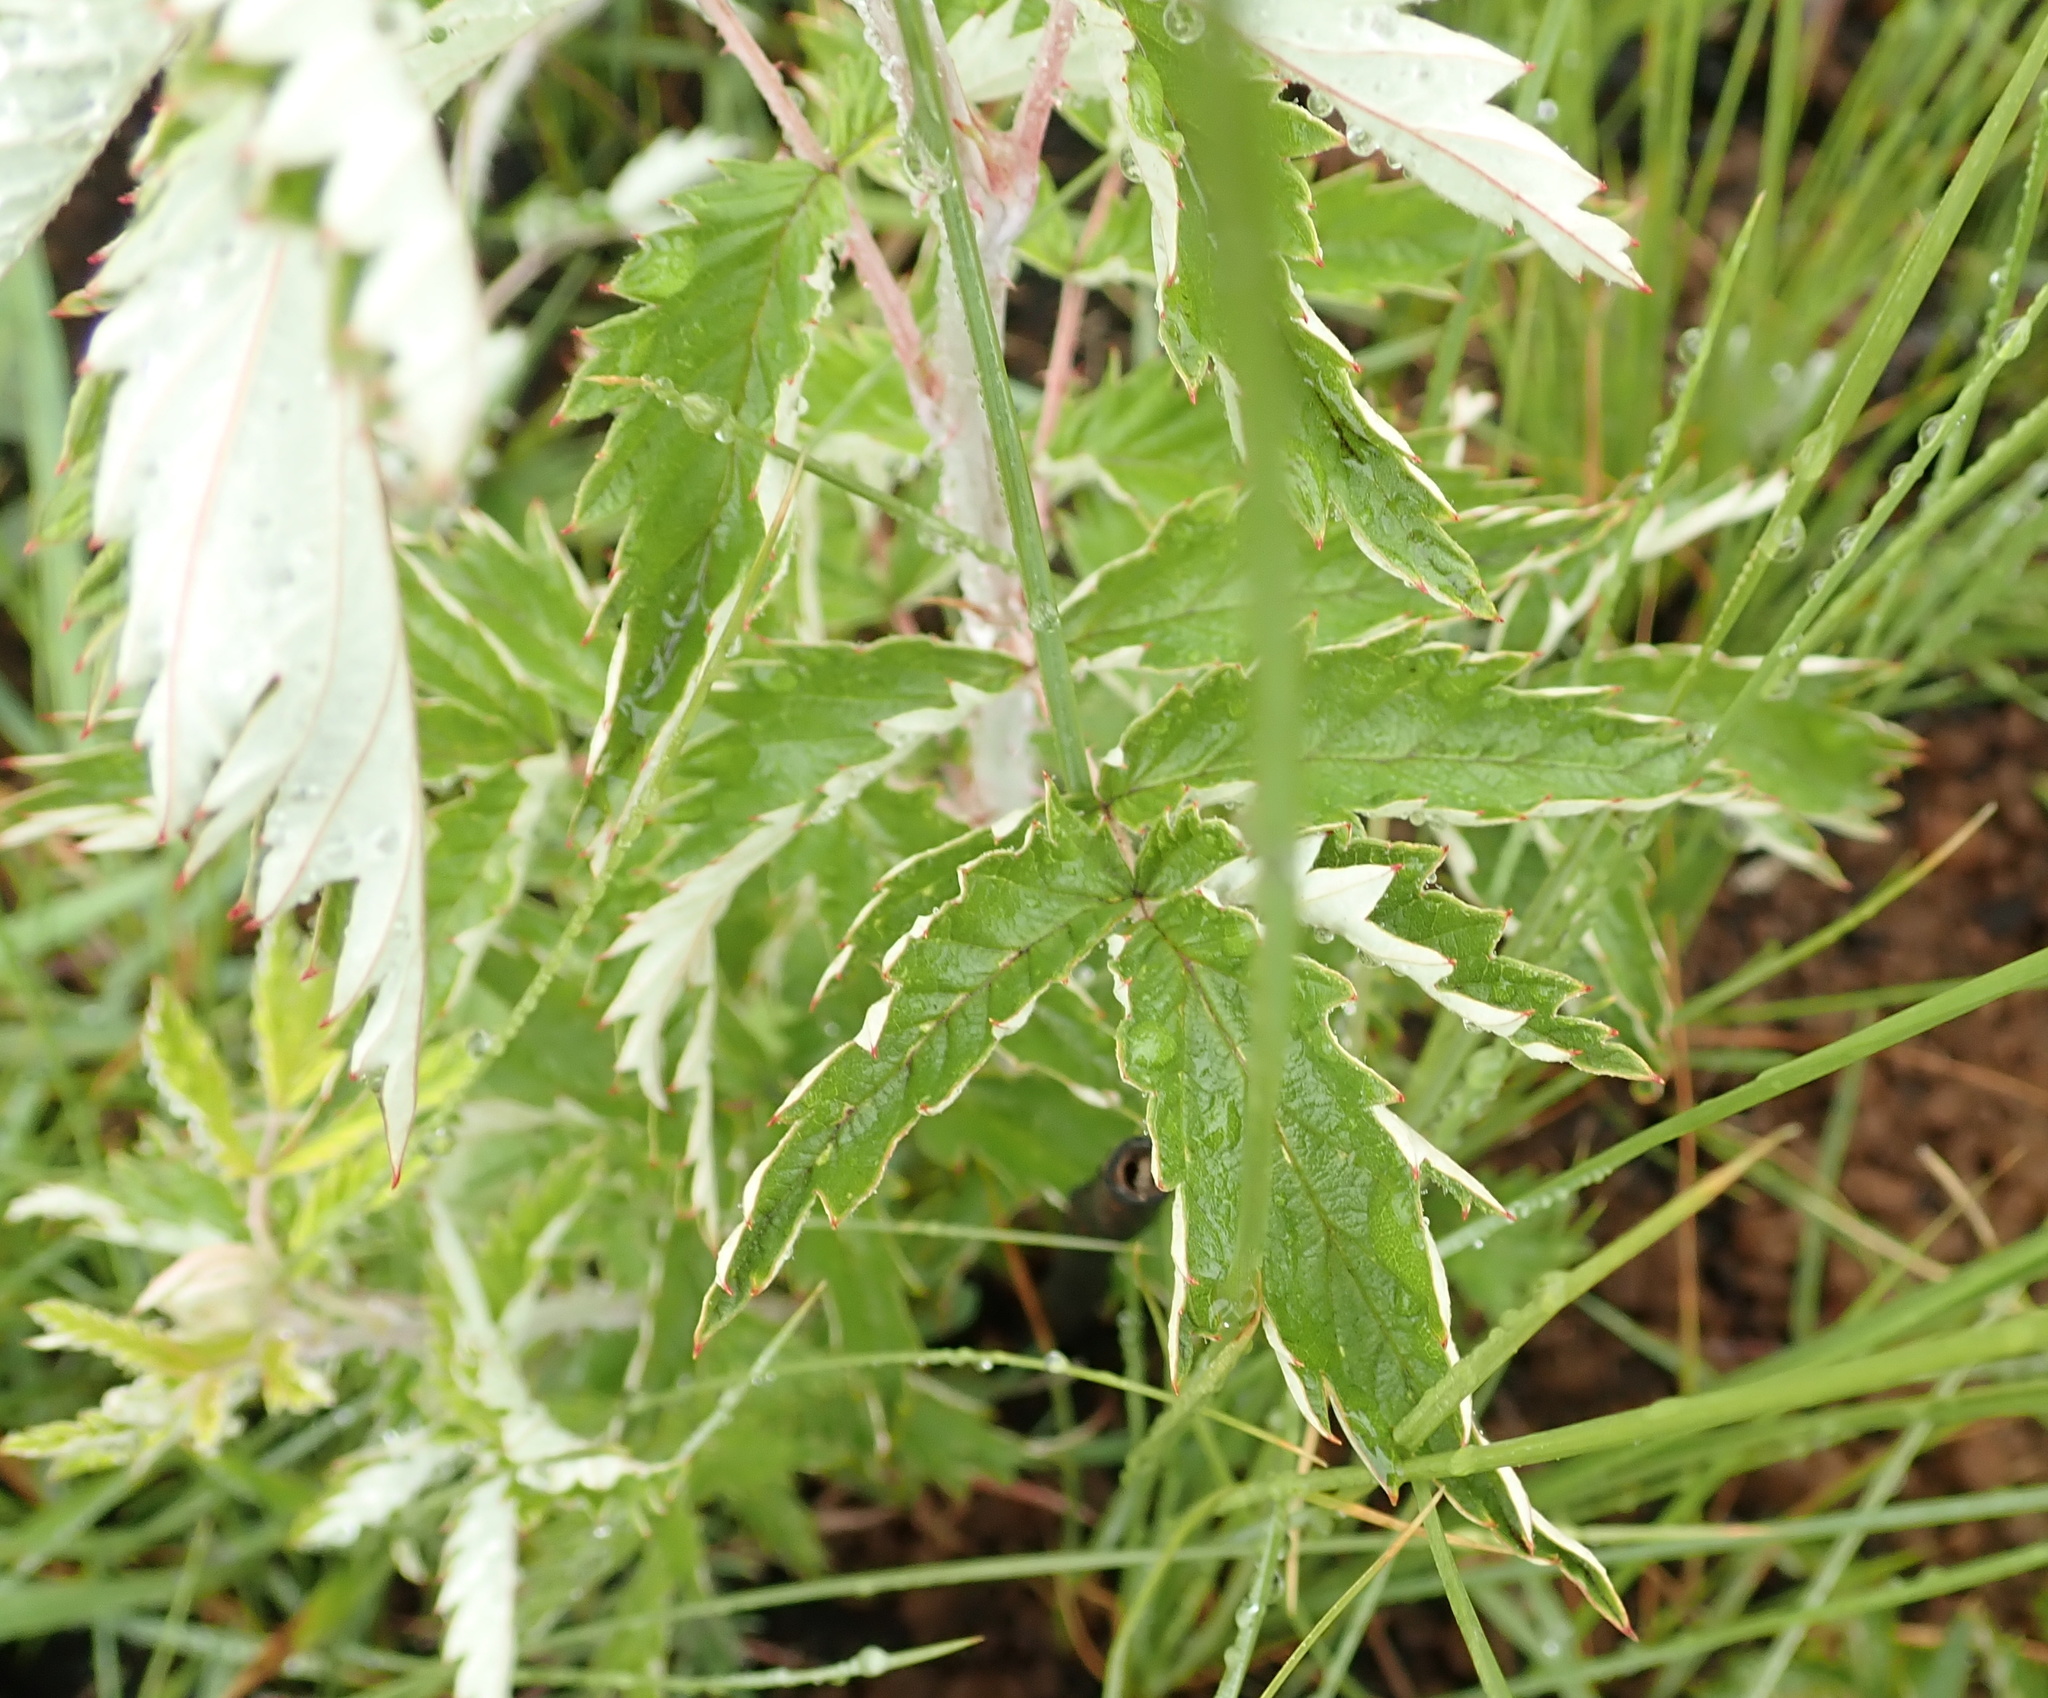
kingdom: Plantae
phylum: Tracheophyta
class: Magnoliopsida
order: Rosales
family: Rosaceae
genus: Rubus
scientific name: Rubus ludwigii
